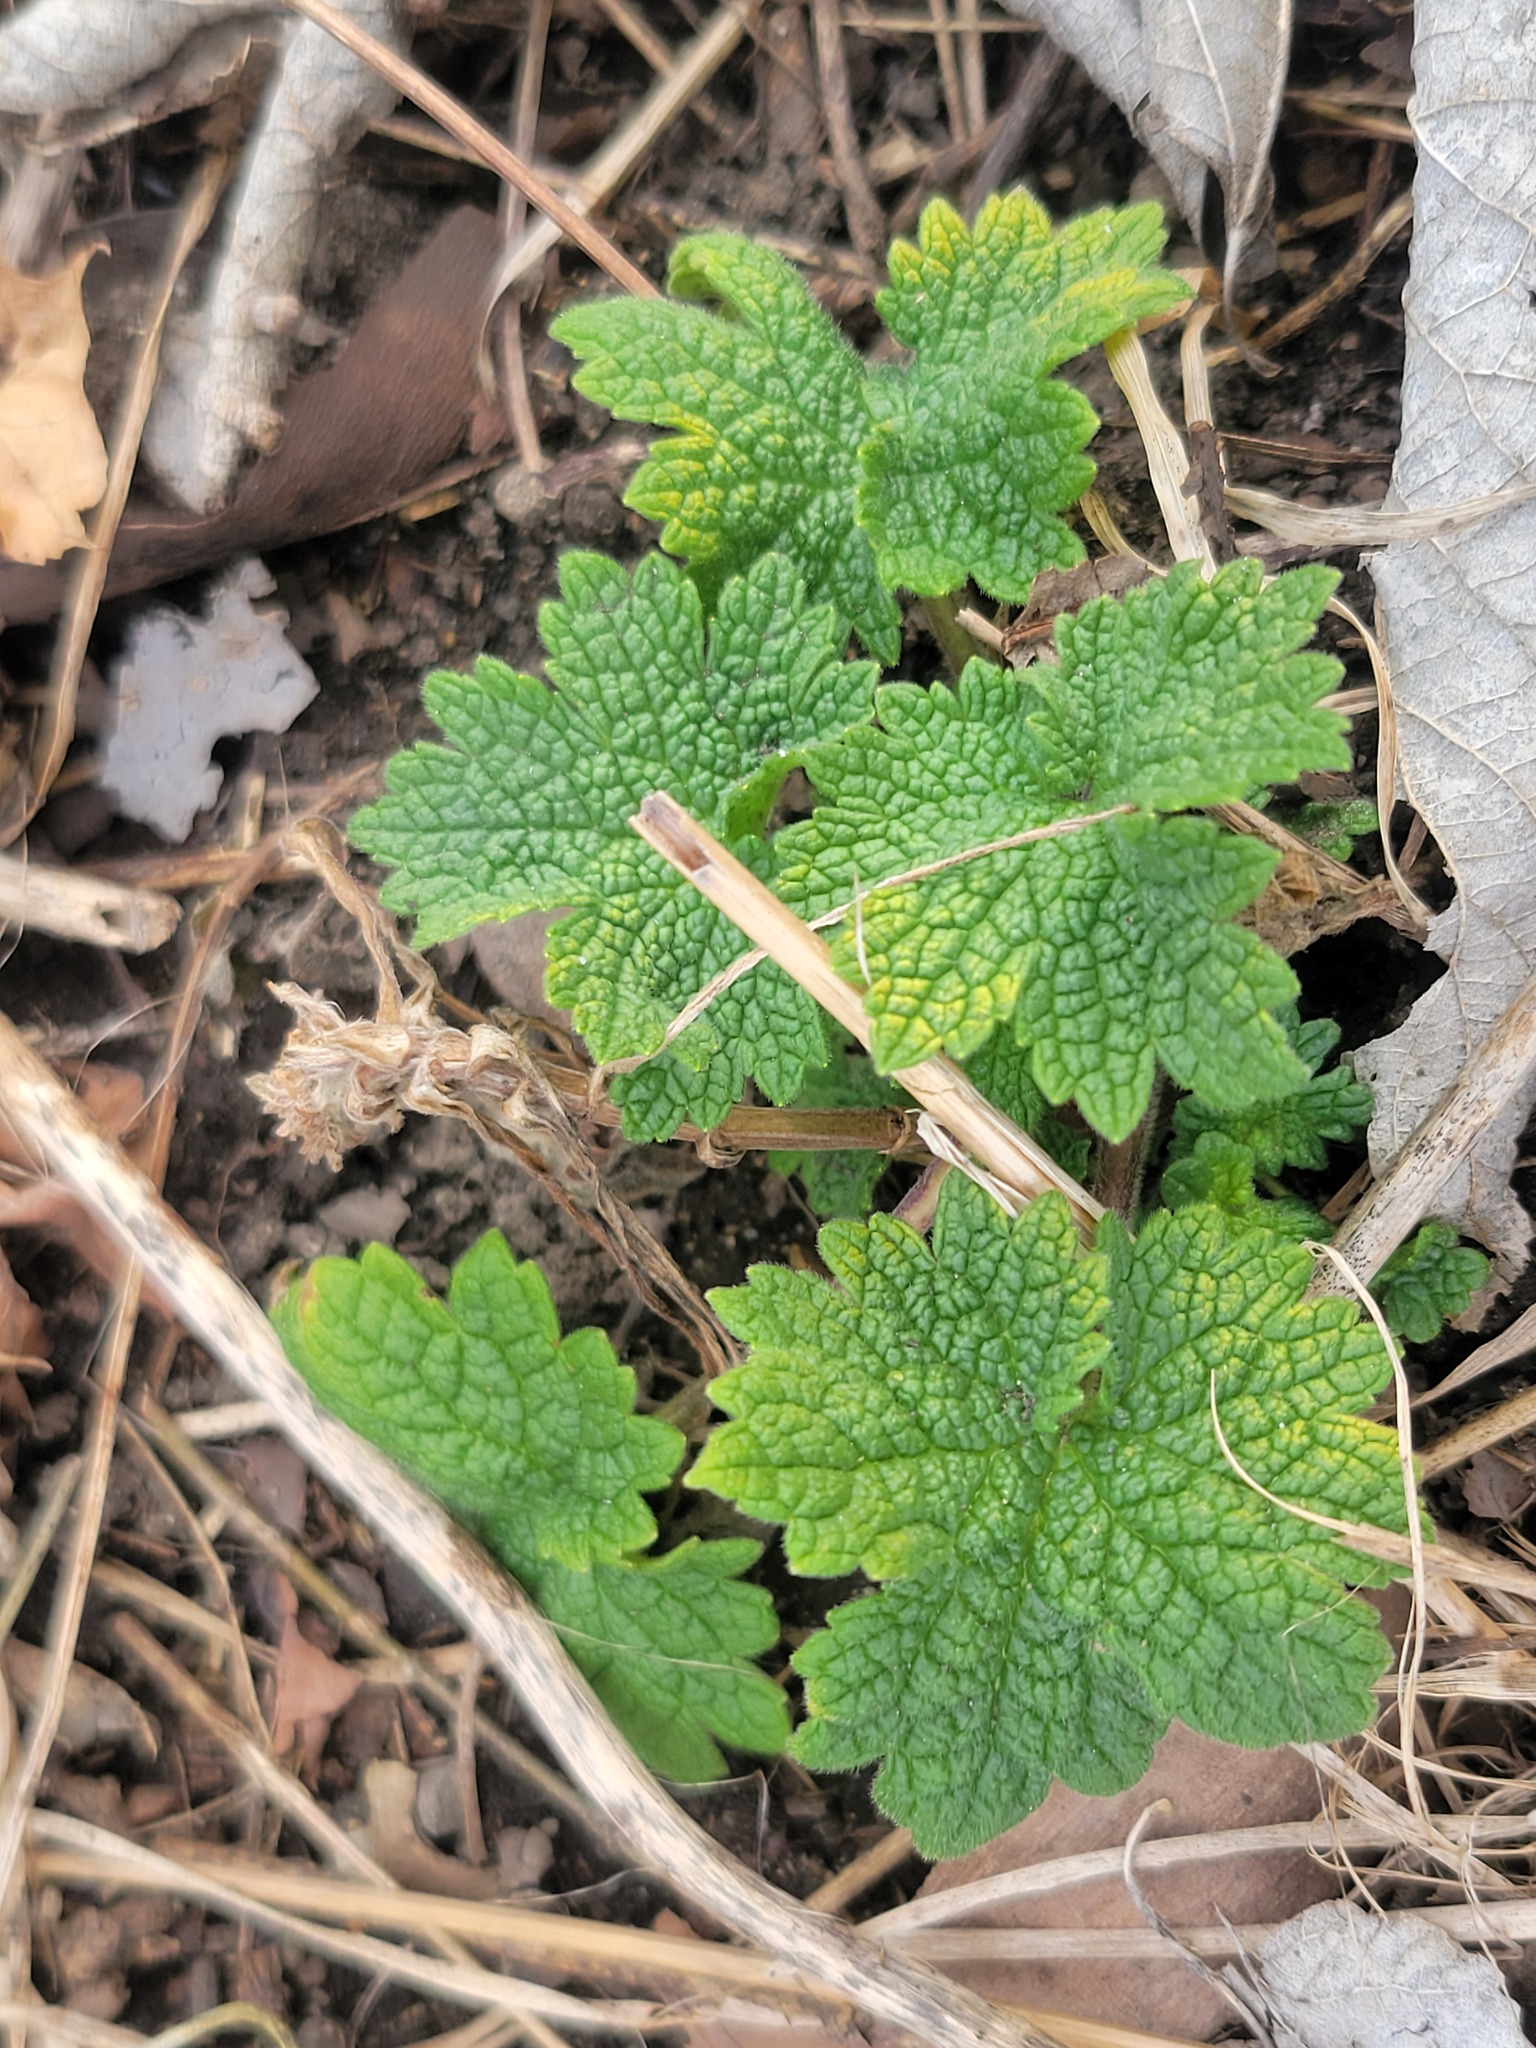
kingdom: Plantae
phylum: Tracheophyta
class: Magnoliopsida
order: Lamiales
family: Lamiaceae
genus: Leonurus
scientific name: Leonurus cardiaca
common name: Motherwort
